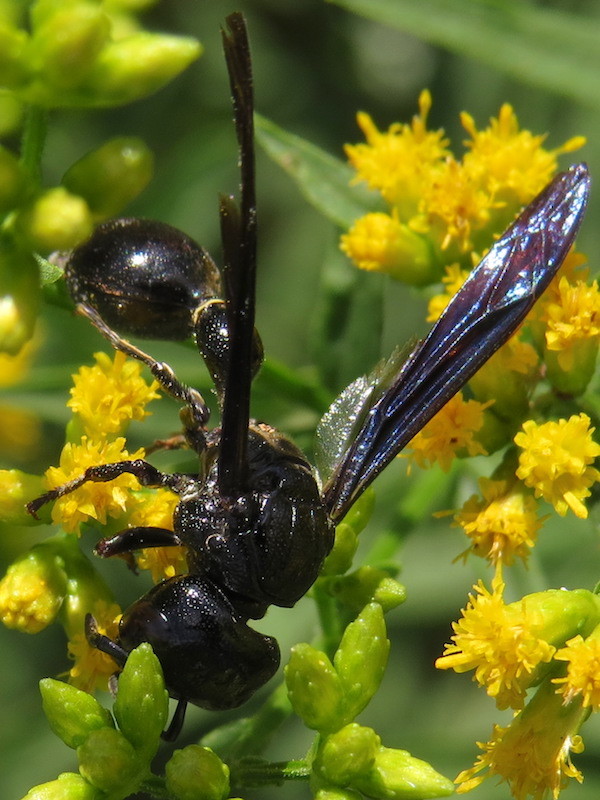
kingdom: Animalia
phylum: Arthropoda
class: Insecta
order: Hymenoptera
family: Eumenidae
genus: Zethus
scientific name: Zethus spinipes
